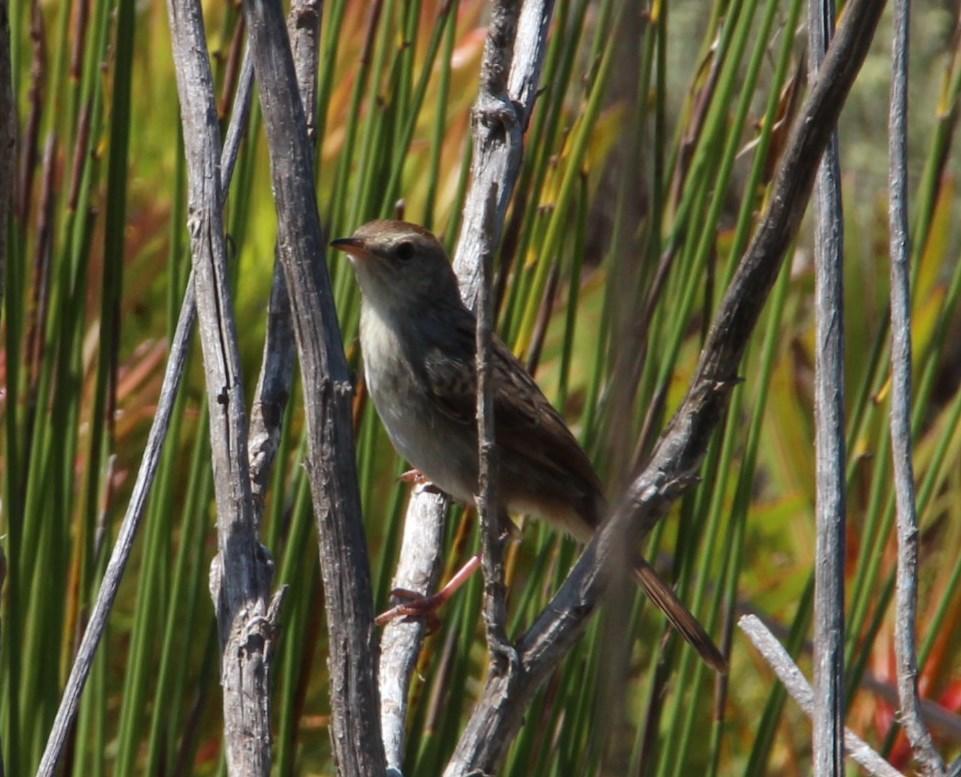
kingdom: Animalia
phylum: Chordata
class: Aves
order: Passeriformes
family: Cisticolidae
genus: Cisticola
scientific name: Cisticola subruficapilla
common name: Grey-backed cisticola
